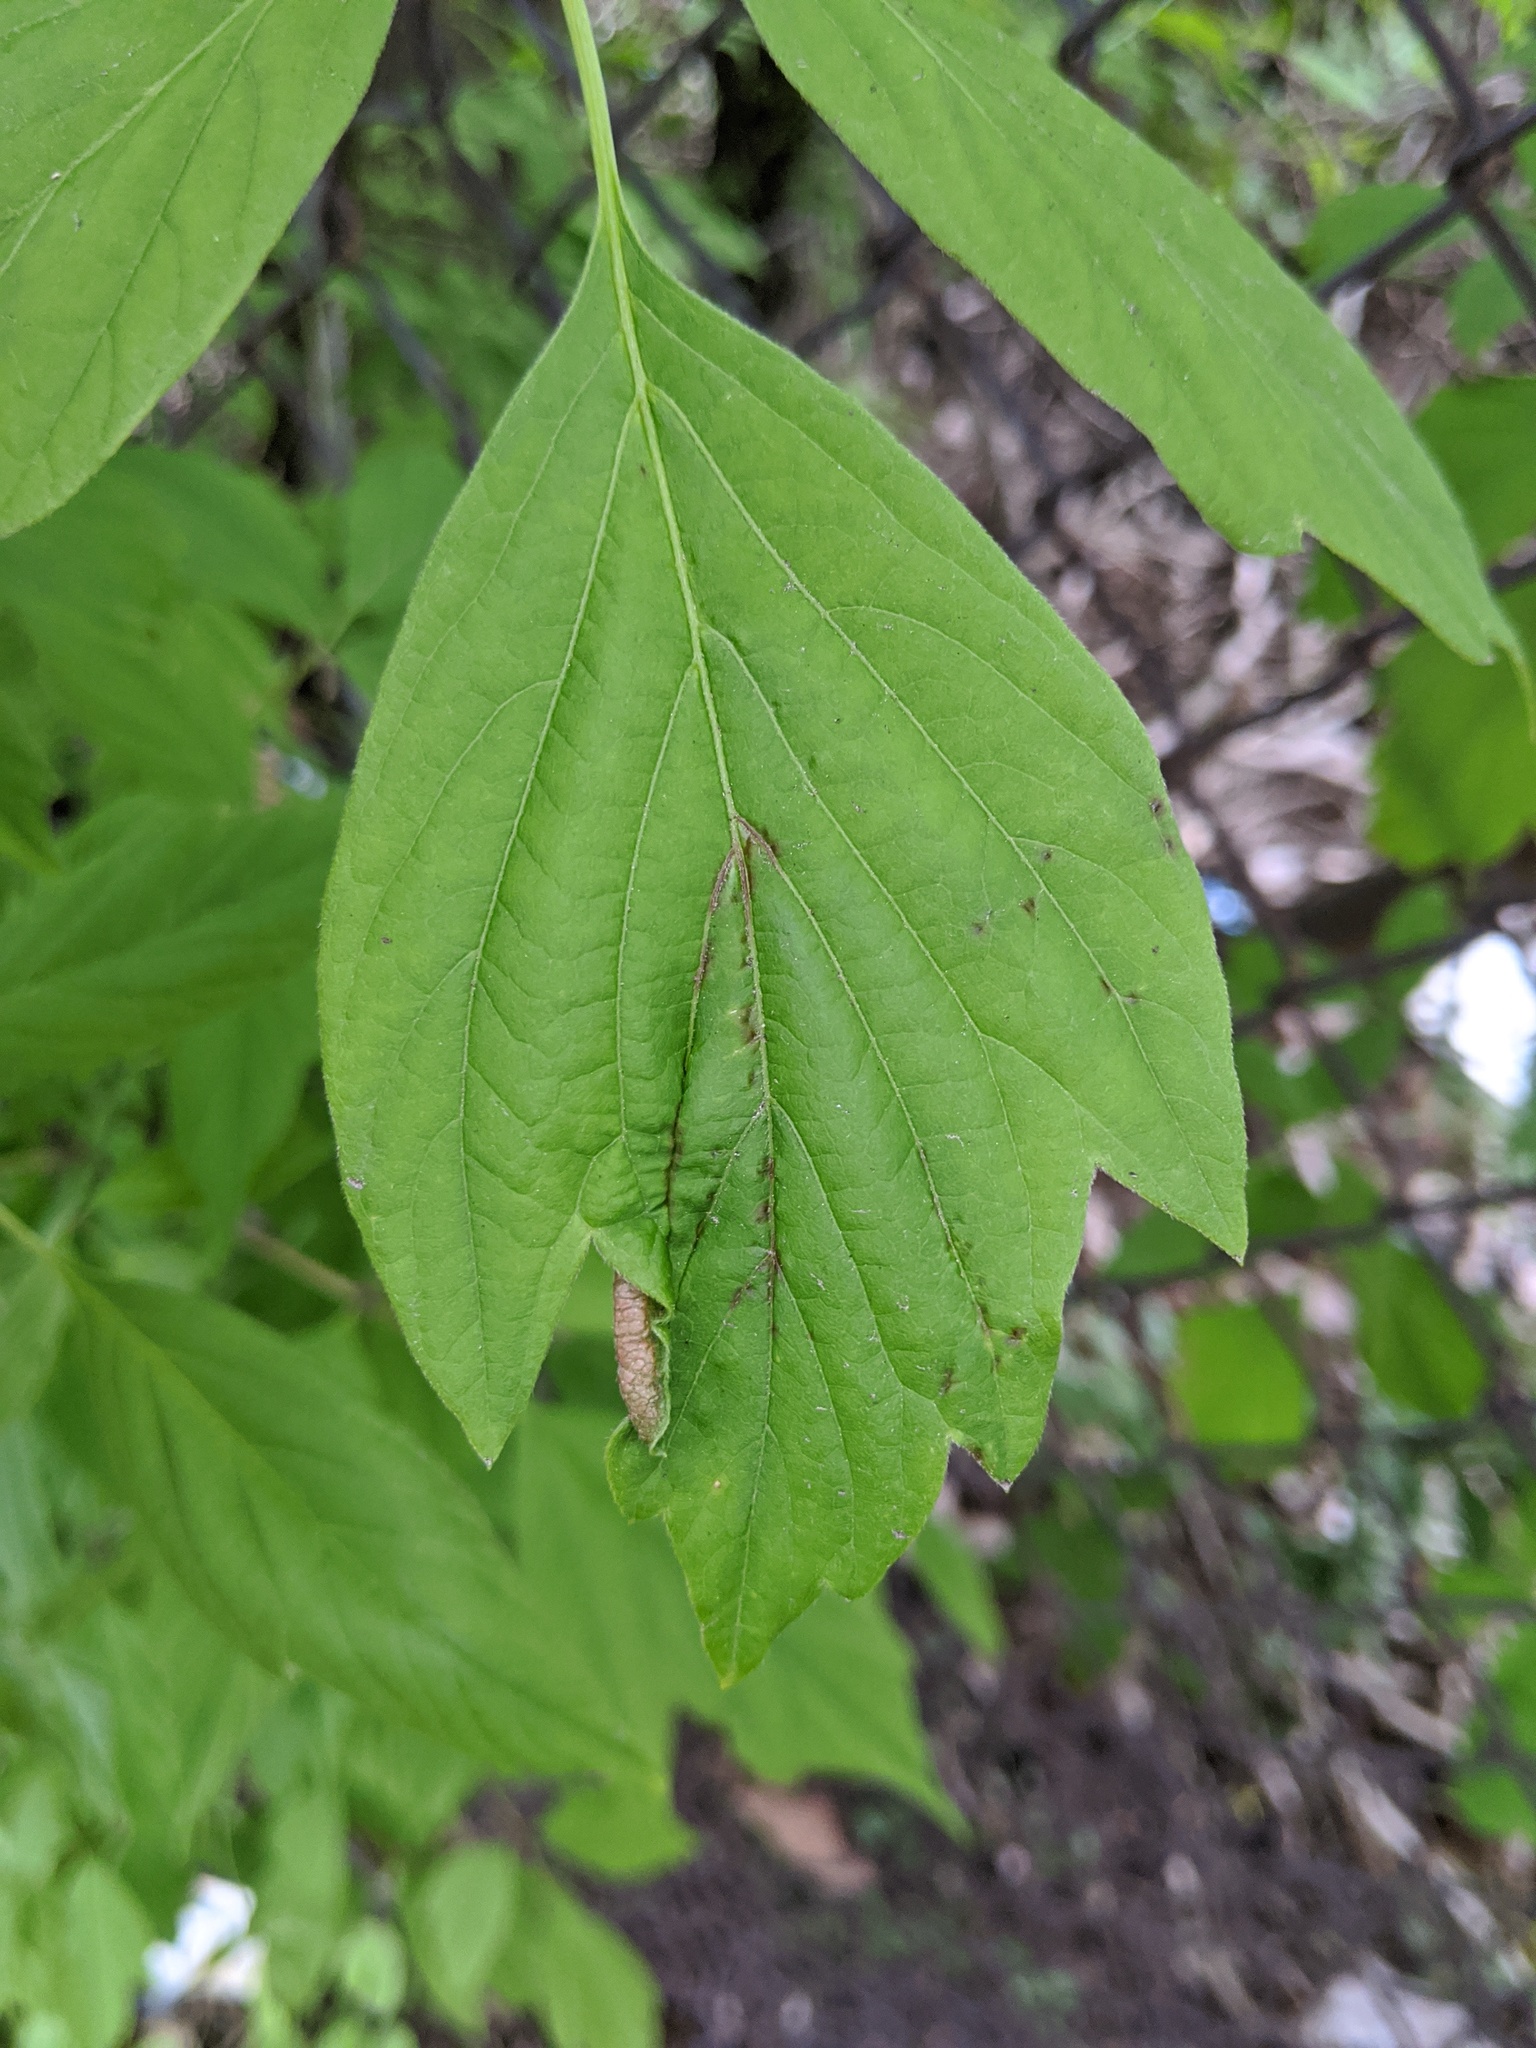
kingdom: Animalia
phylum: Arthropoda
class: Insecta
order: Diptera
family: Cecidomyiidae
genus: Contarinia
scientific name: Contarinia negundinis
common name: Boxelder budgall midge
